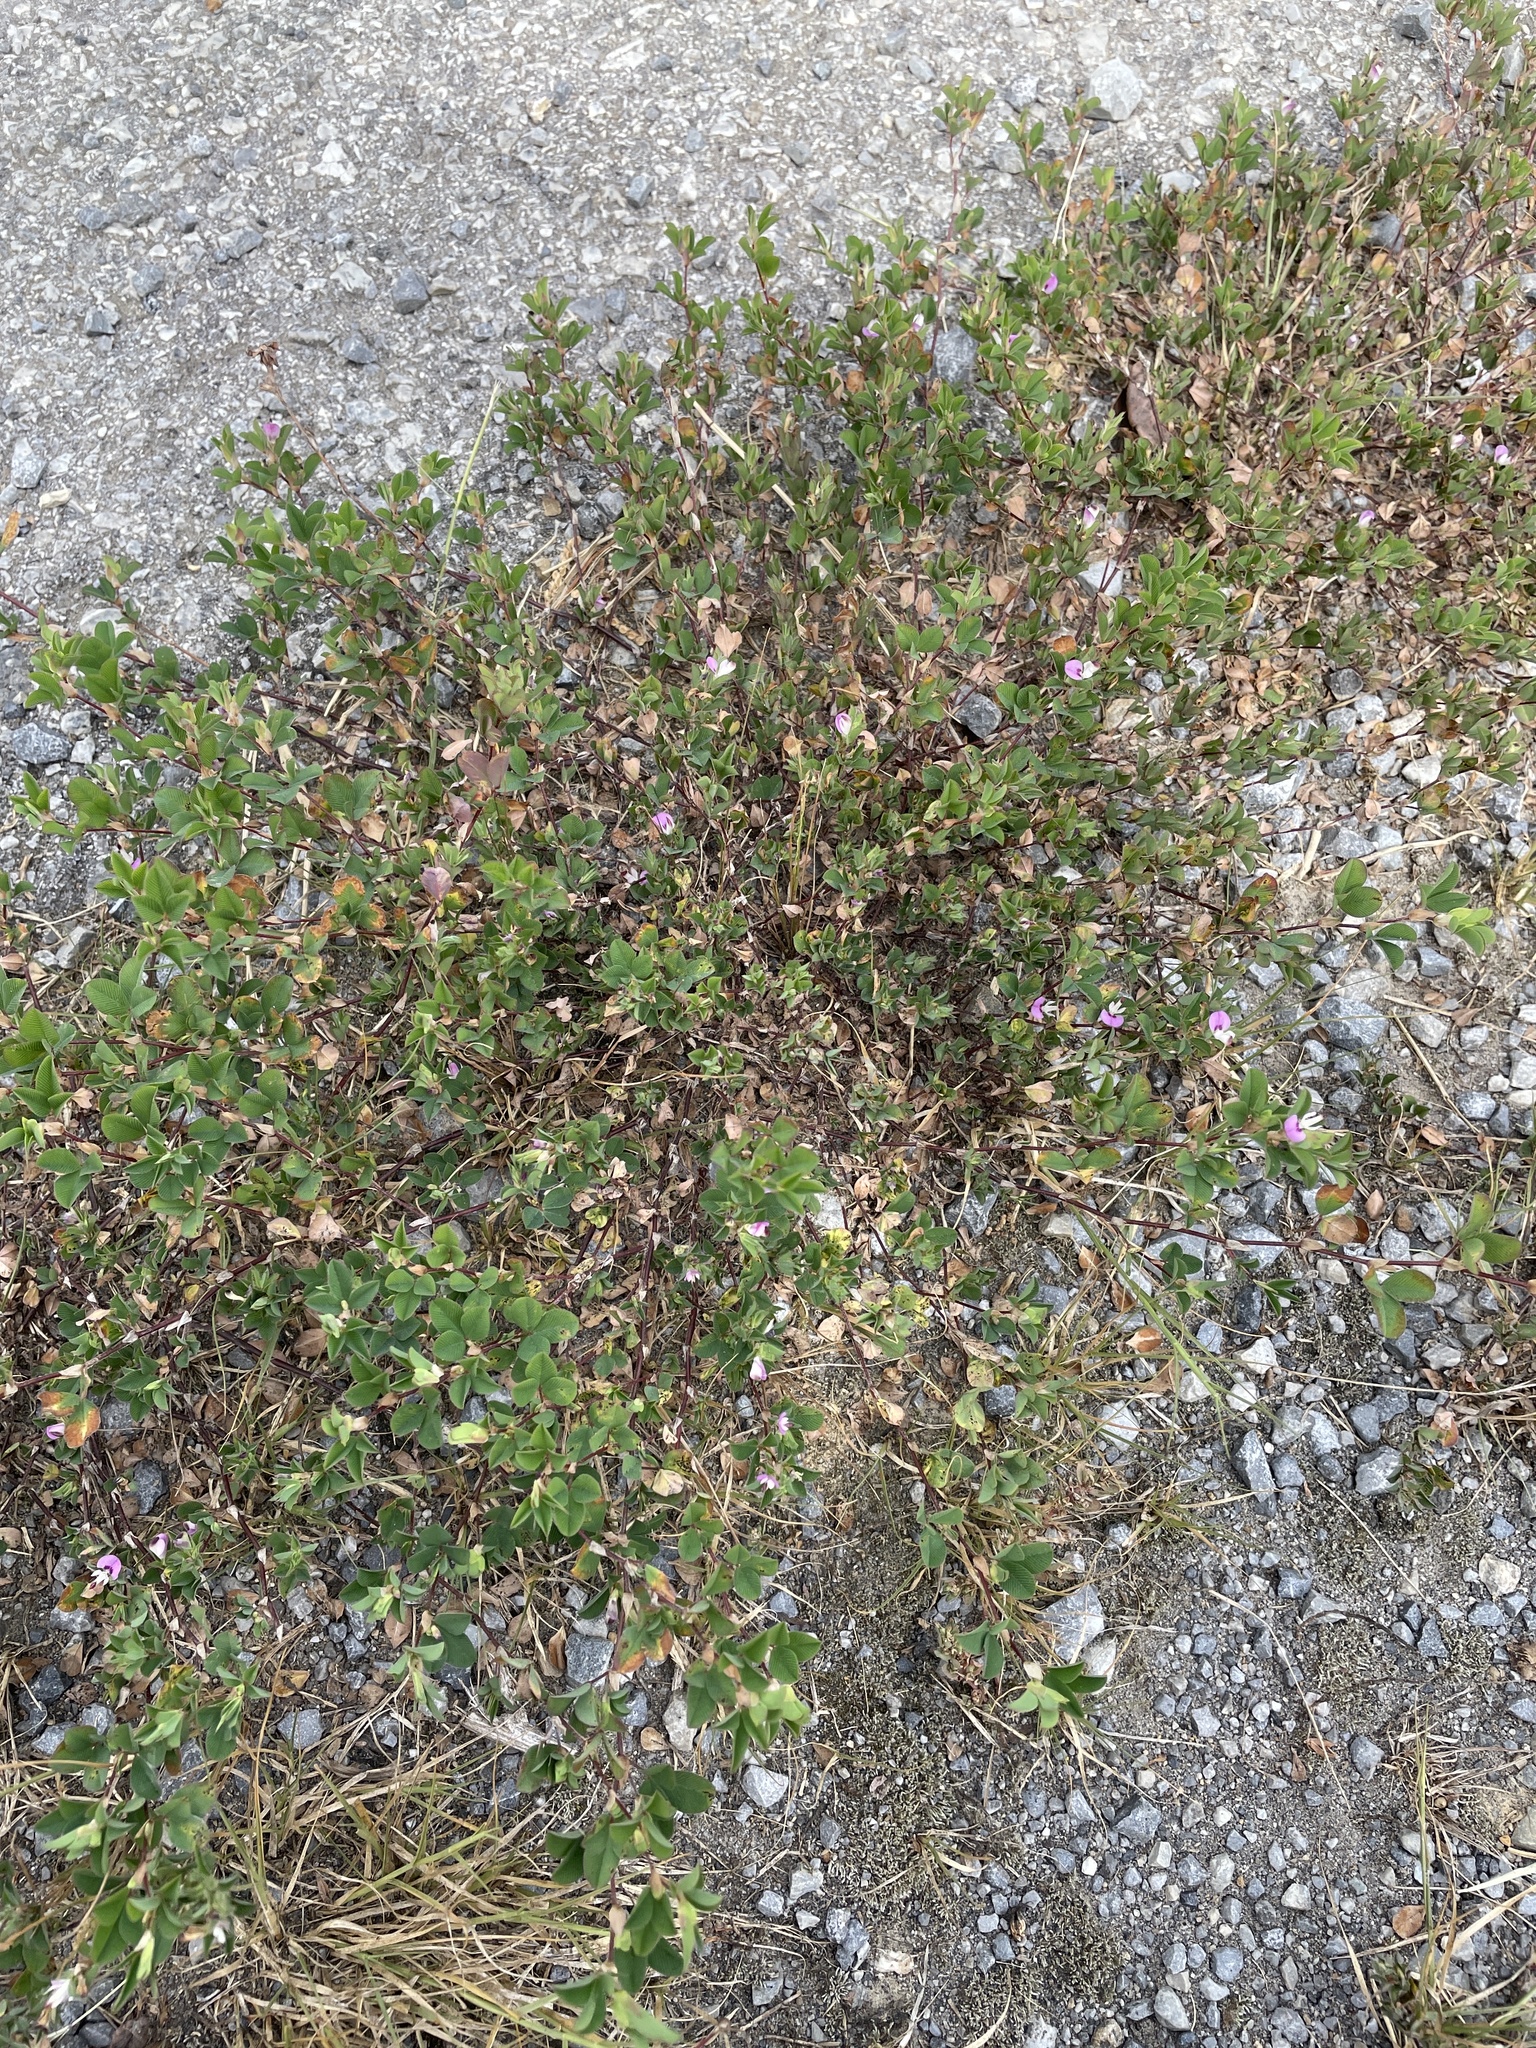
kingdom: Plantae
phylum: Tracheophyta
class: Magnoliopsida
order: Fabales
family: Fabaceae
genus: Kummerowia
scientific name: Kummerowia stipulacea
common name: Korean clover
